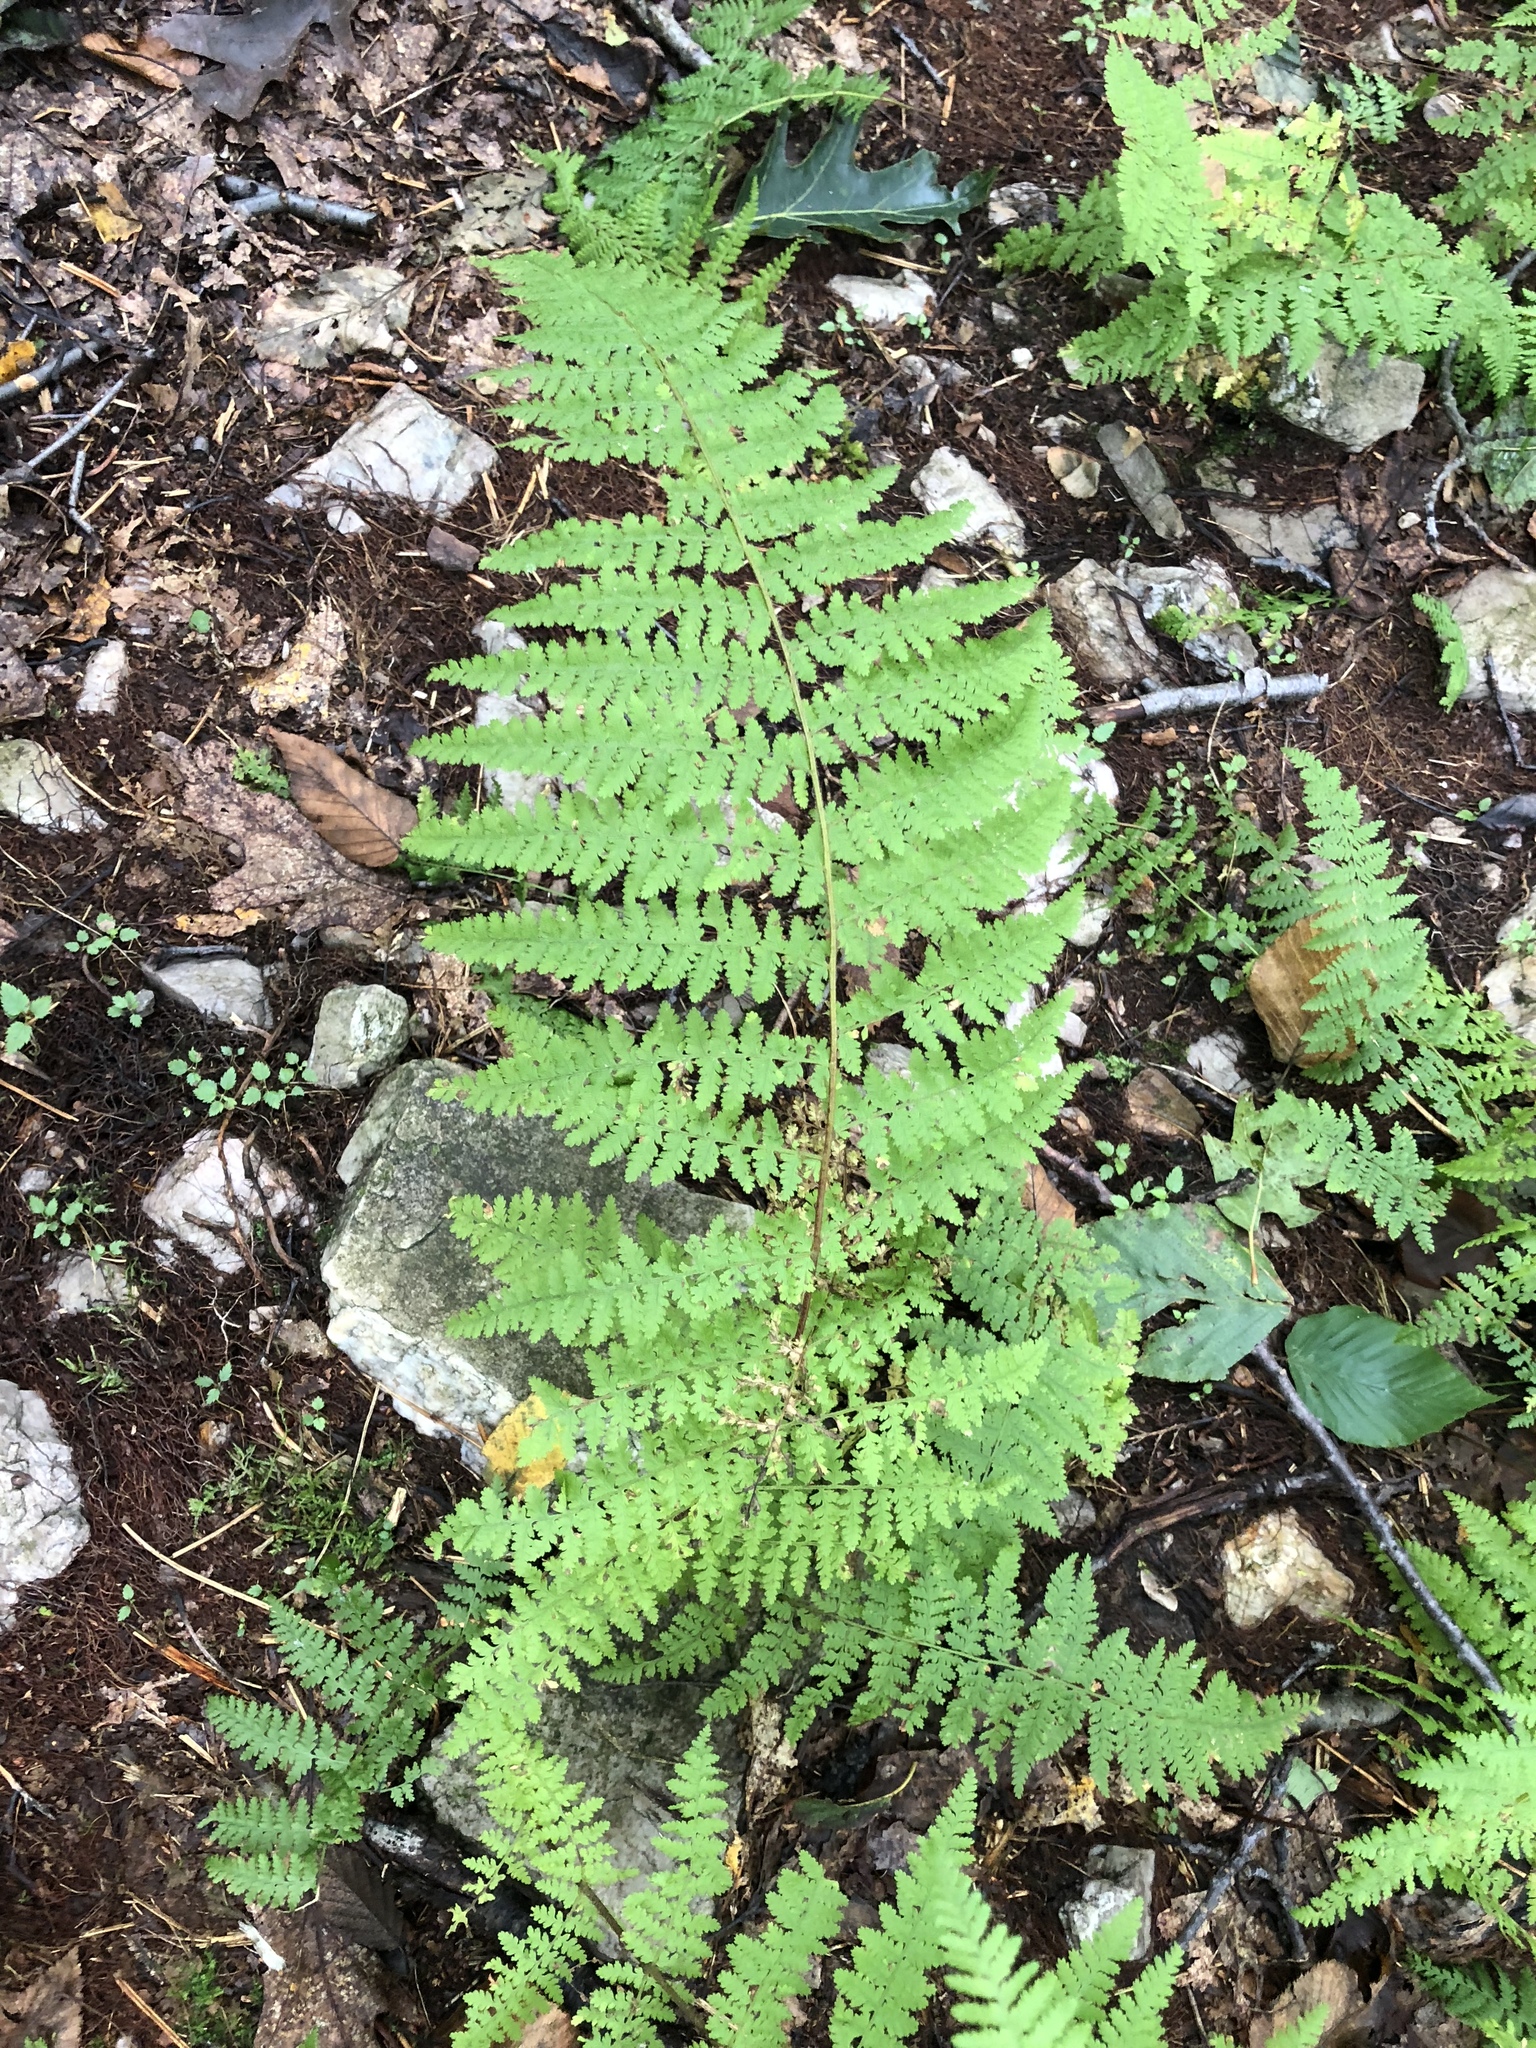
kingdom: Plantae
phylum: Tracheophyta
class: Polypodiopsida
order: Polypodiales
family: Dennstaedtiaceae
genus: Sitobolium
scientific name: Sitobolium punctilobum
